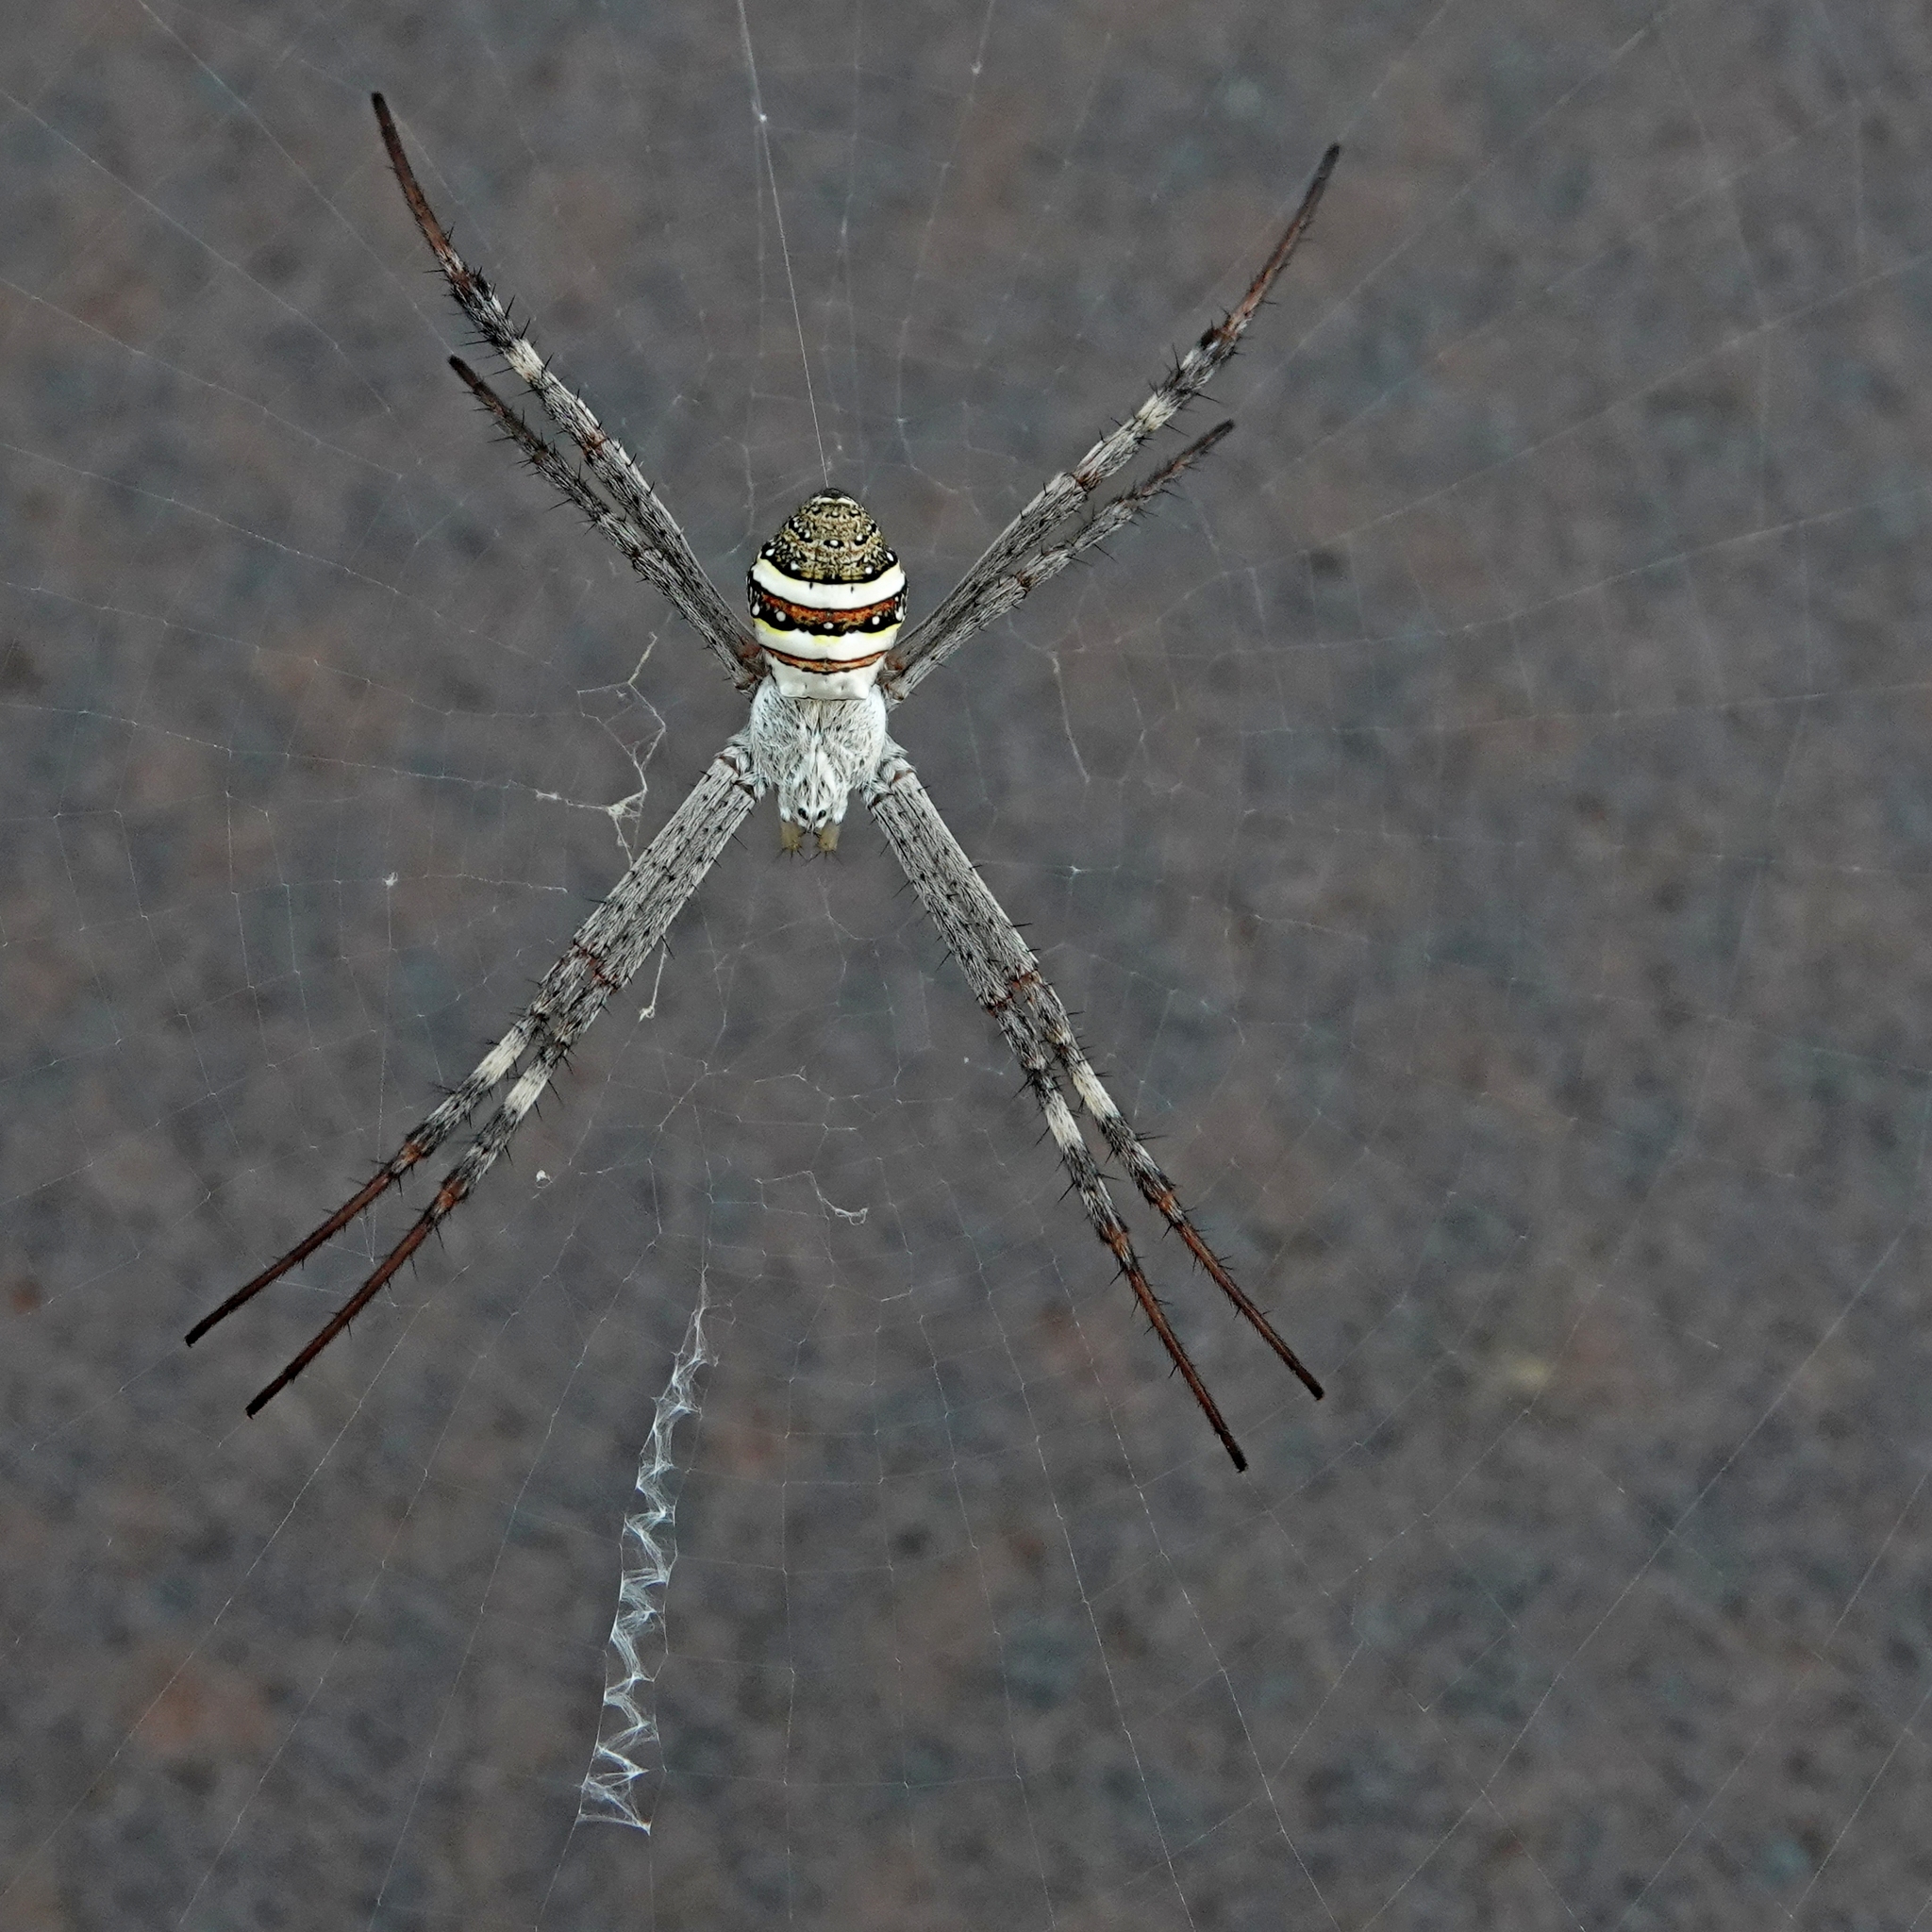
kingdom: Animalia
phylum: Arthropoda
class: Arachnida
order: Araneae
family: Araneidae
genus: Argiope
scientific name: Argiope keyserlingi
